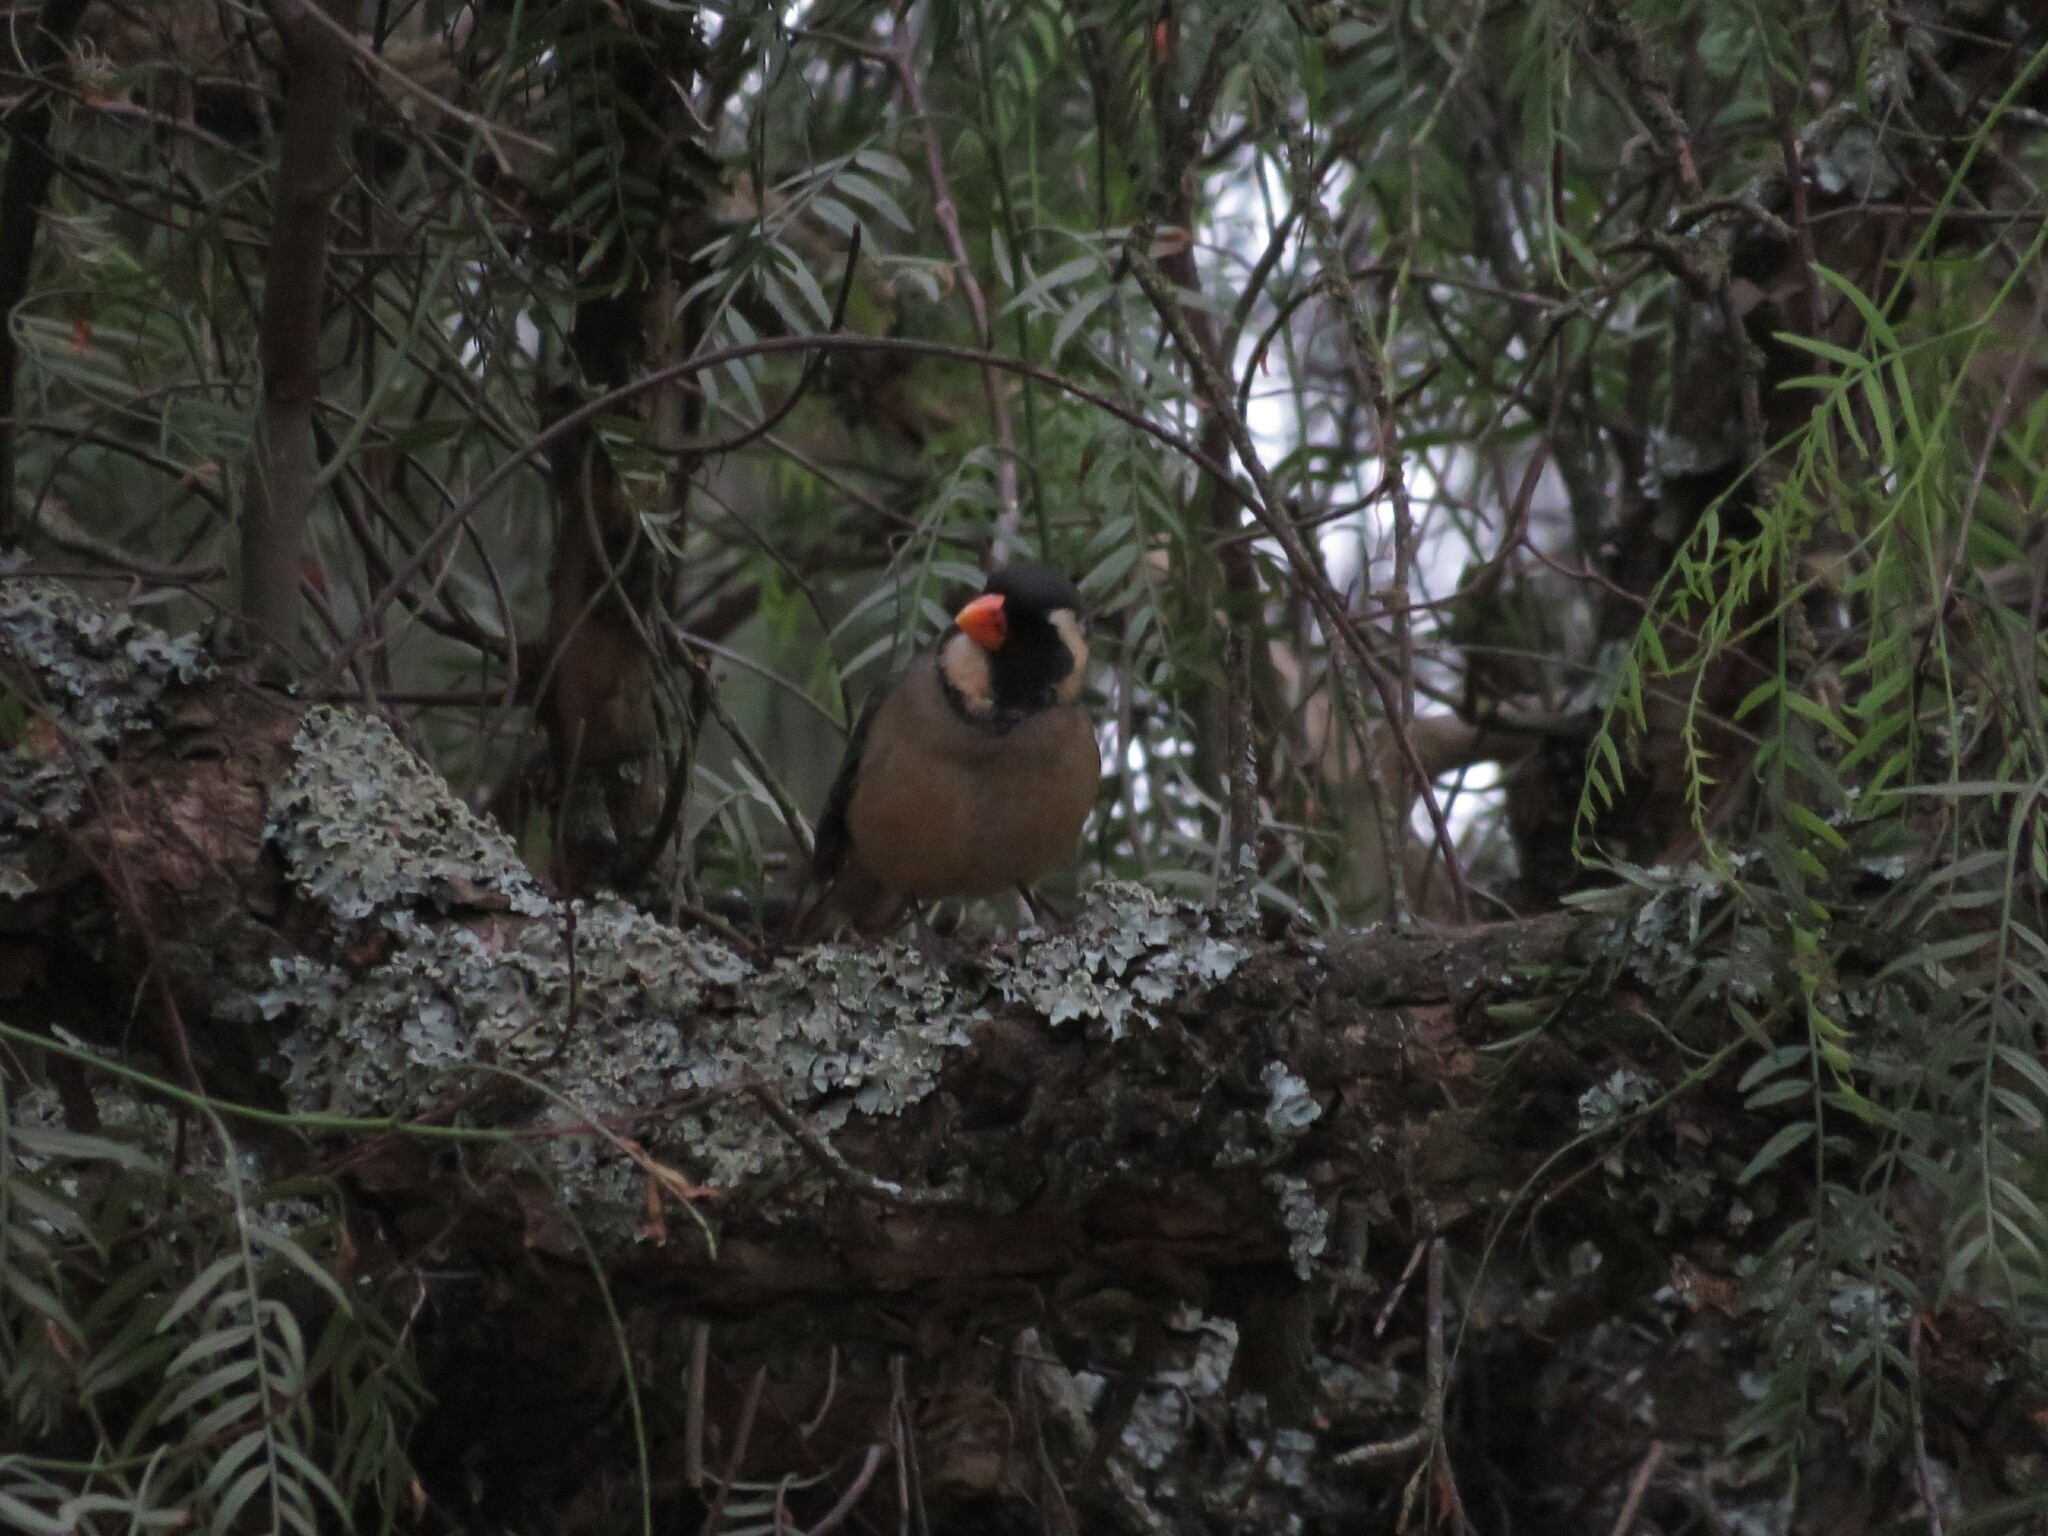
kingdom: Animalia
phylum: Chordata
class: Aves
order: Passeriformes
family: Thraupidae
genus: Saltator
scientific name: Saltator aurantiirostris
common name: Golden-billed saltator
